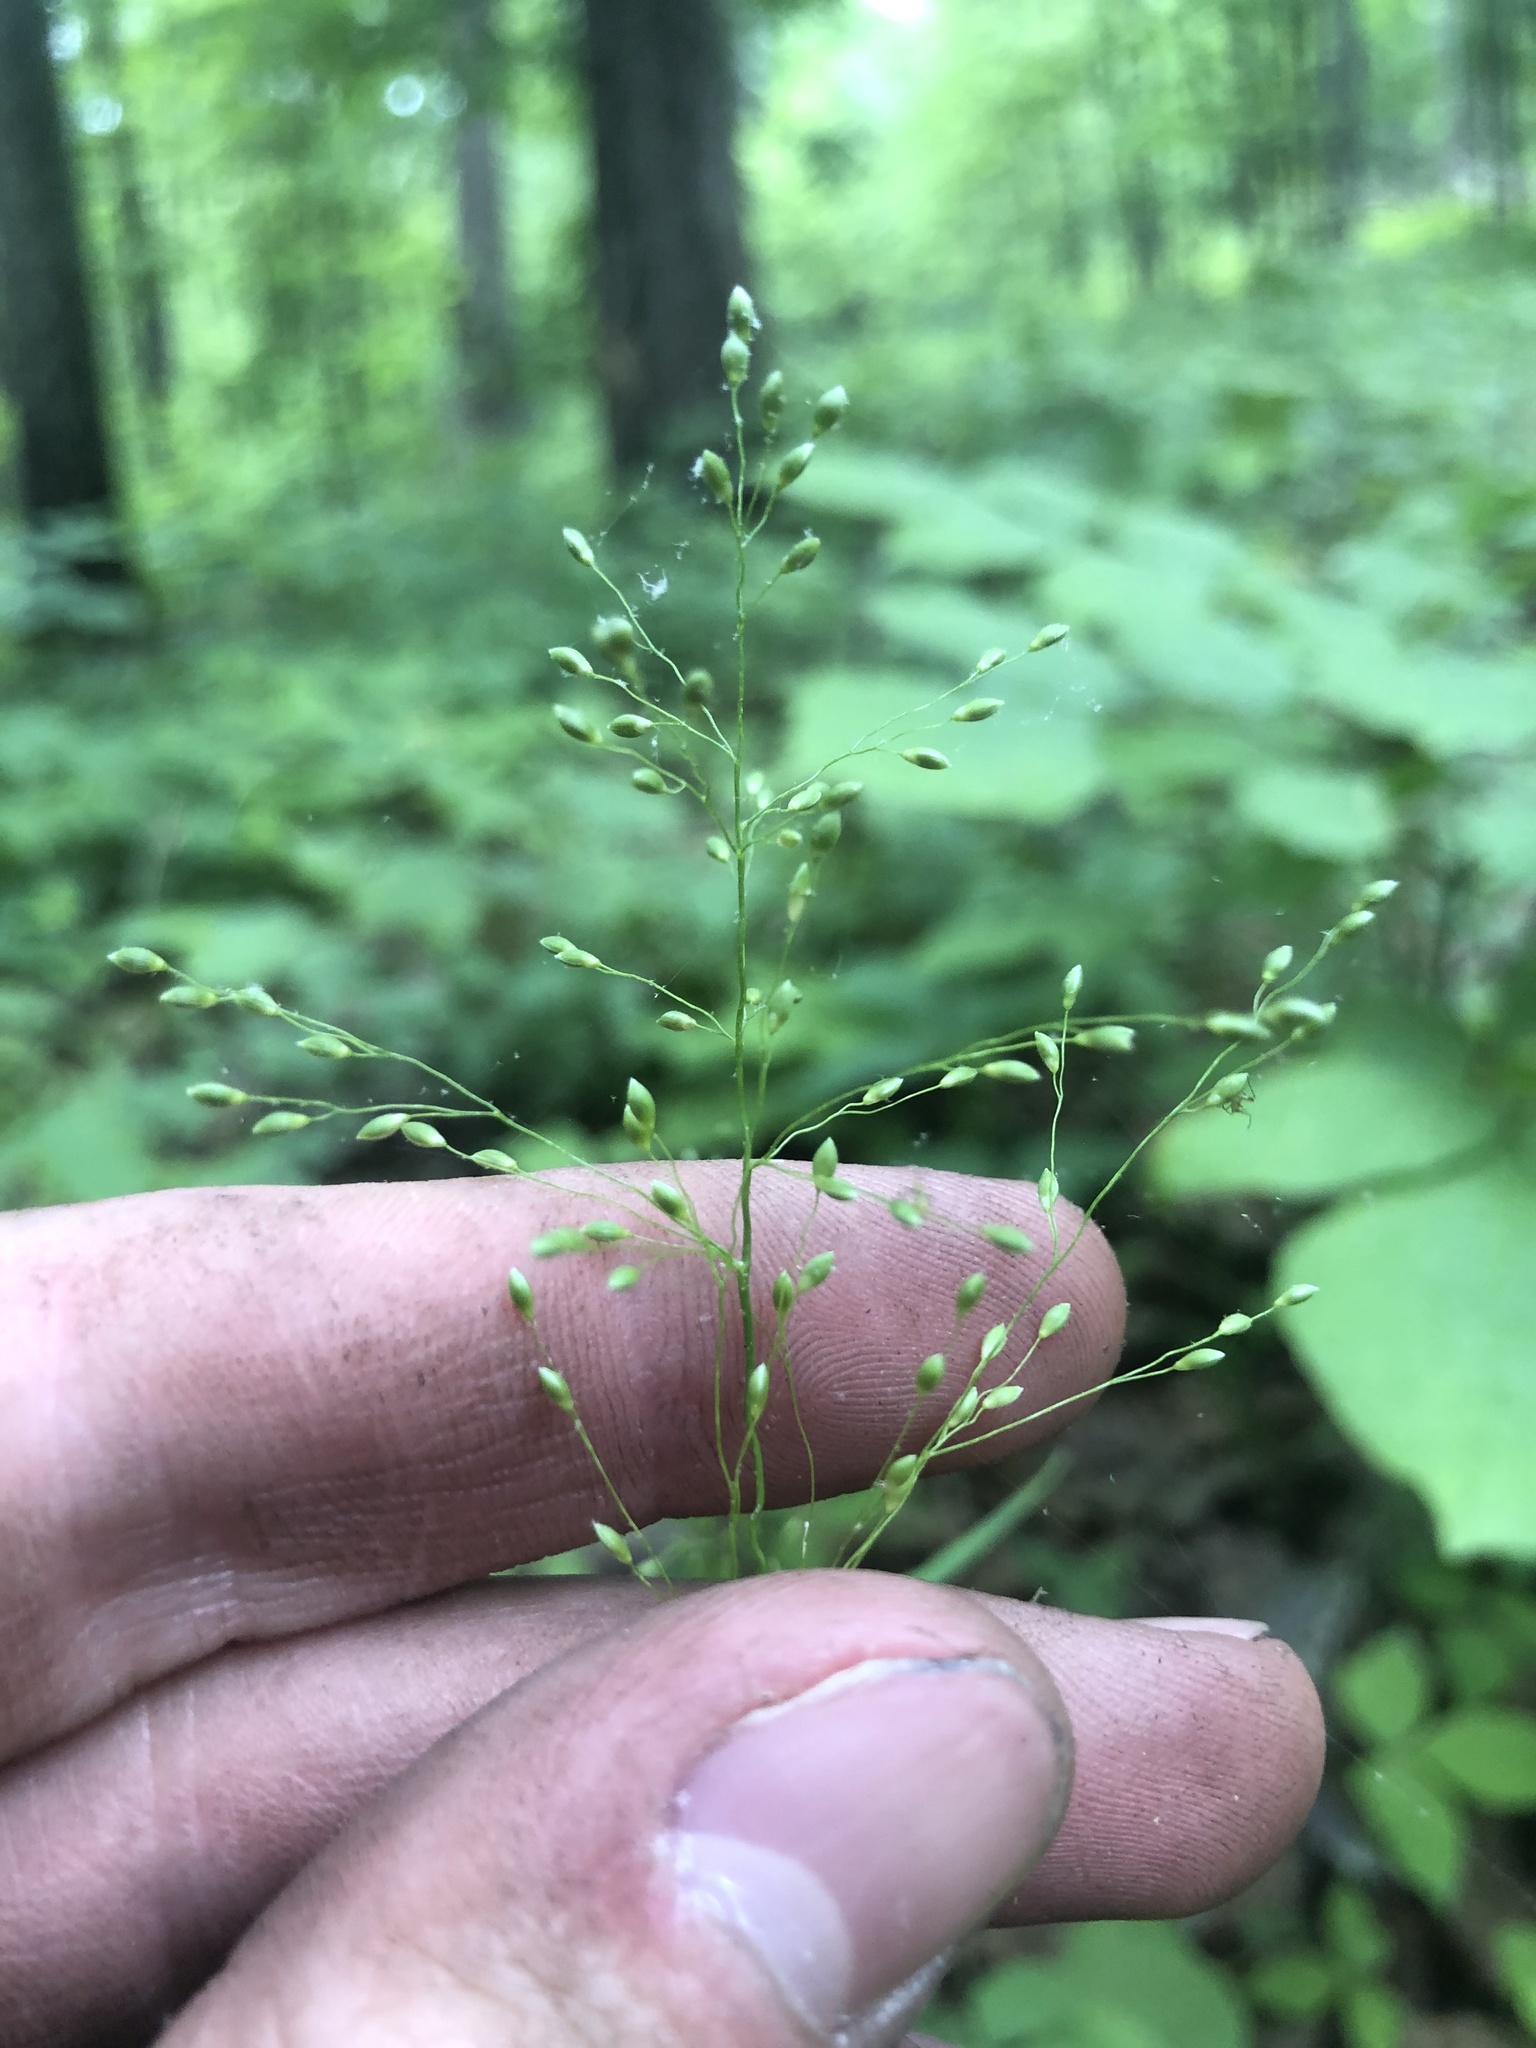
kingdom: Plantae
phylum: Tracheophyta
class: Liliopsida
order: Poales
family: Poaceae
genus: Dichanthelium
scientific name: Dichanthelium yadkinense
